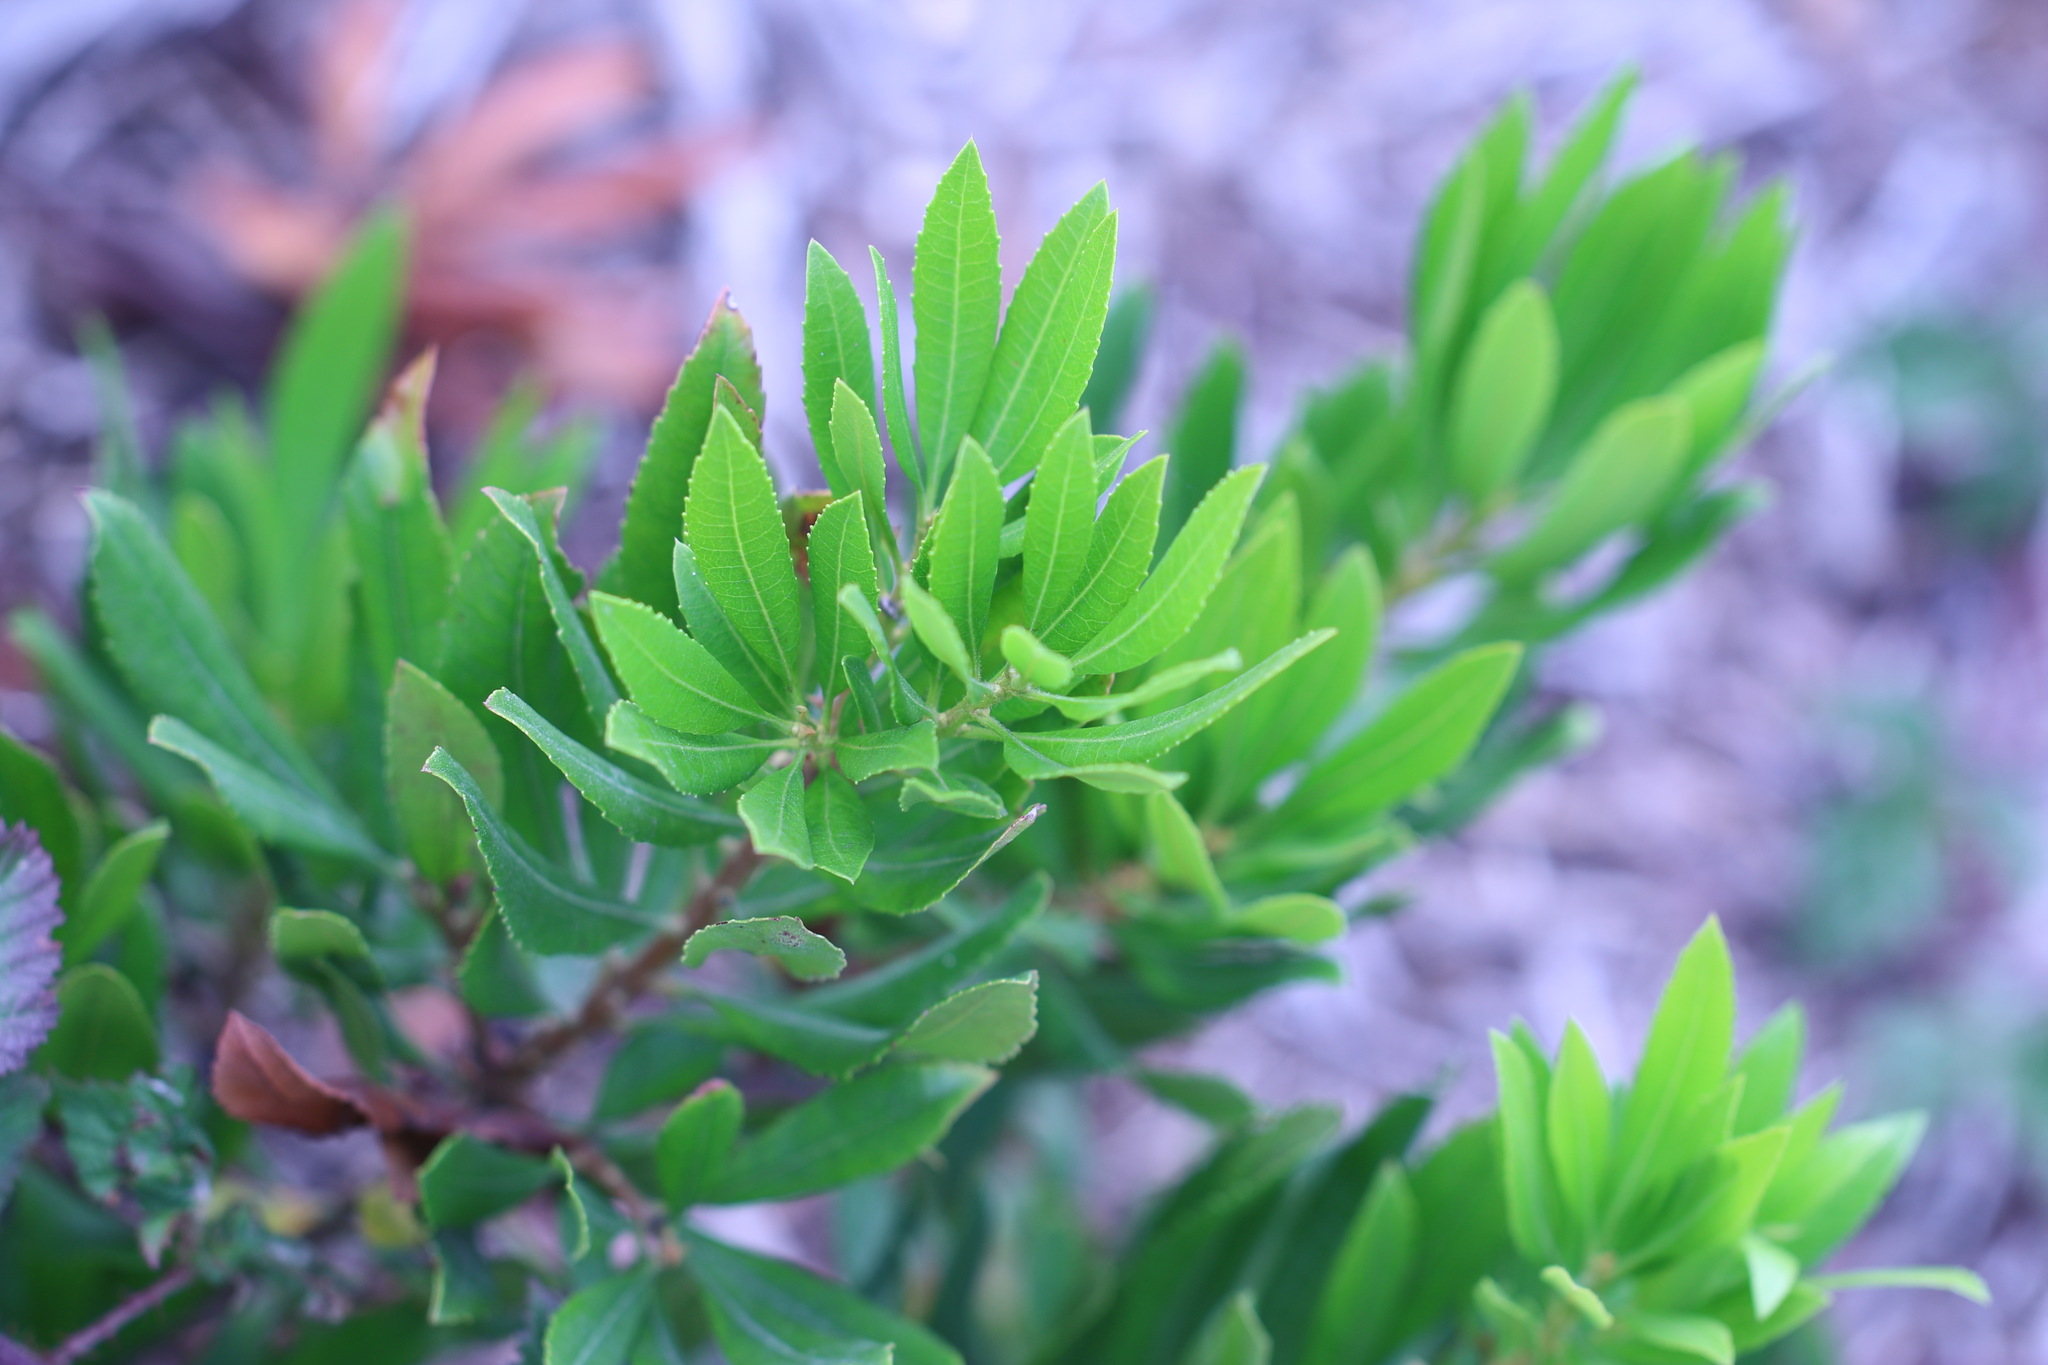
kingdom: Plantae
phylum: Tracheophyta
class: Magnoliopsida
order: Fagales
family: Myricaceae
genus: Morella
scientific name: Morella californica
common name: California wax-myrtle
